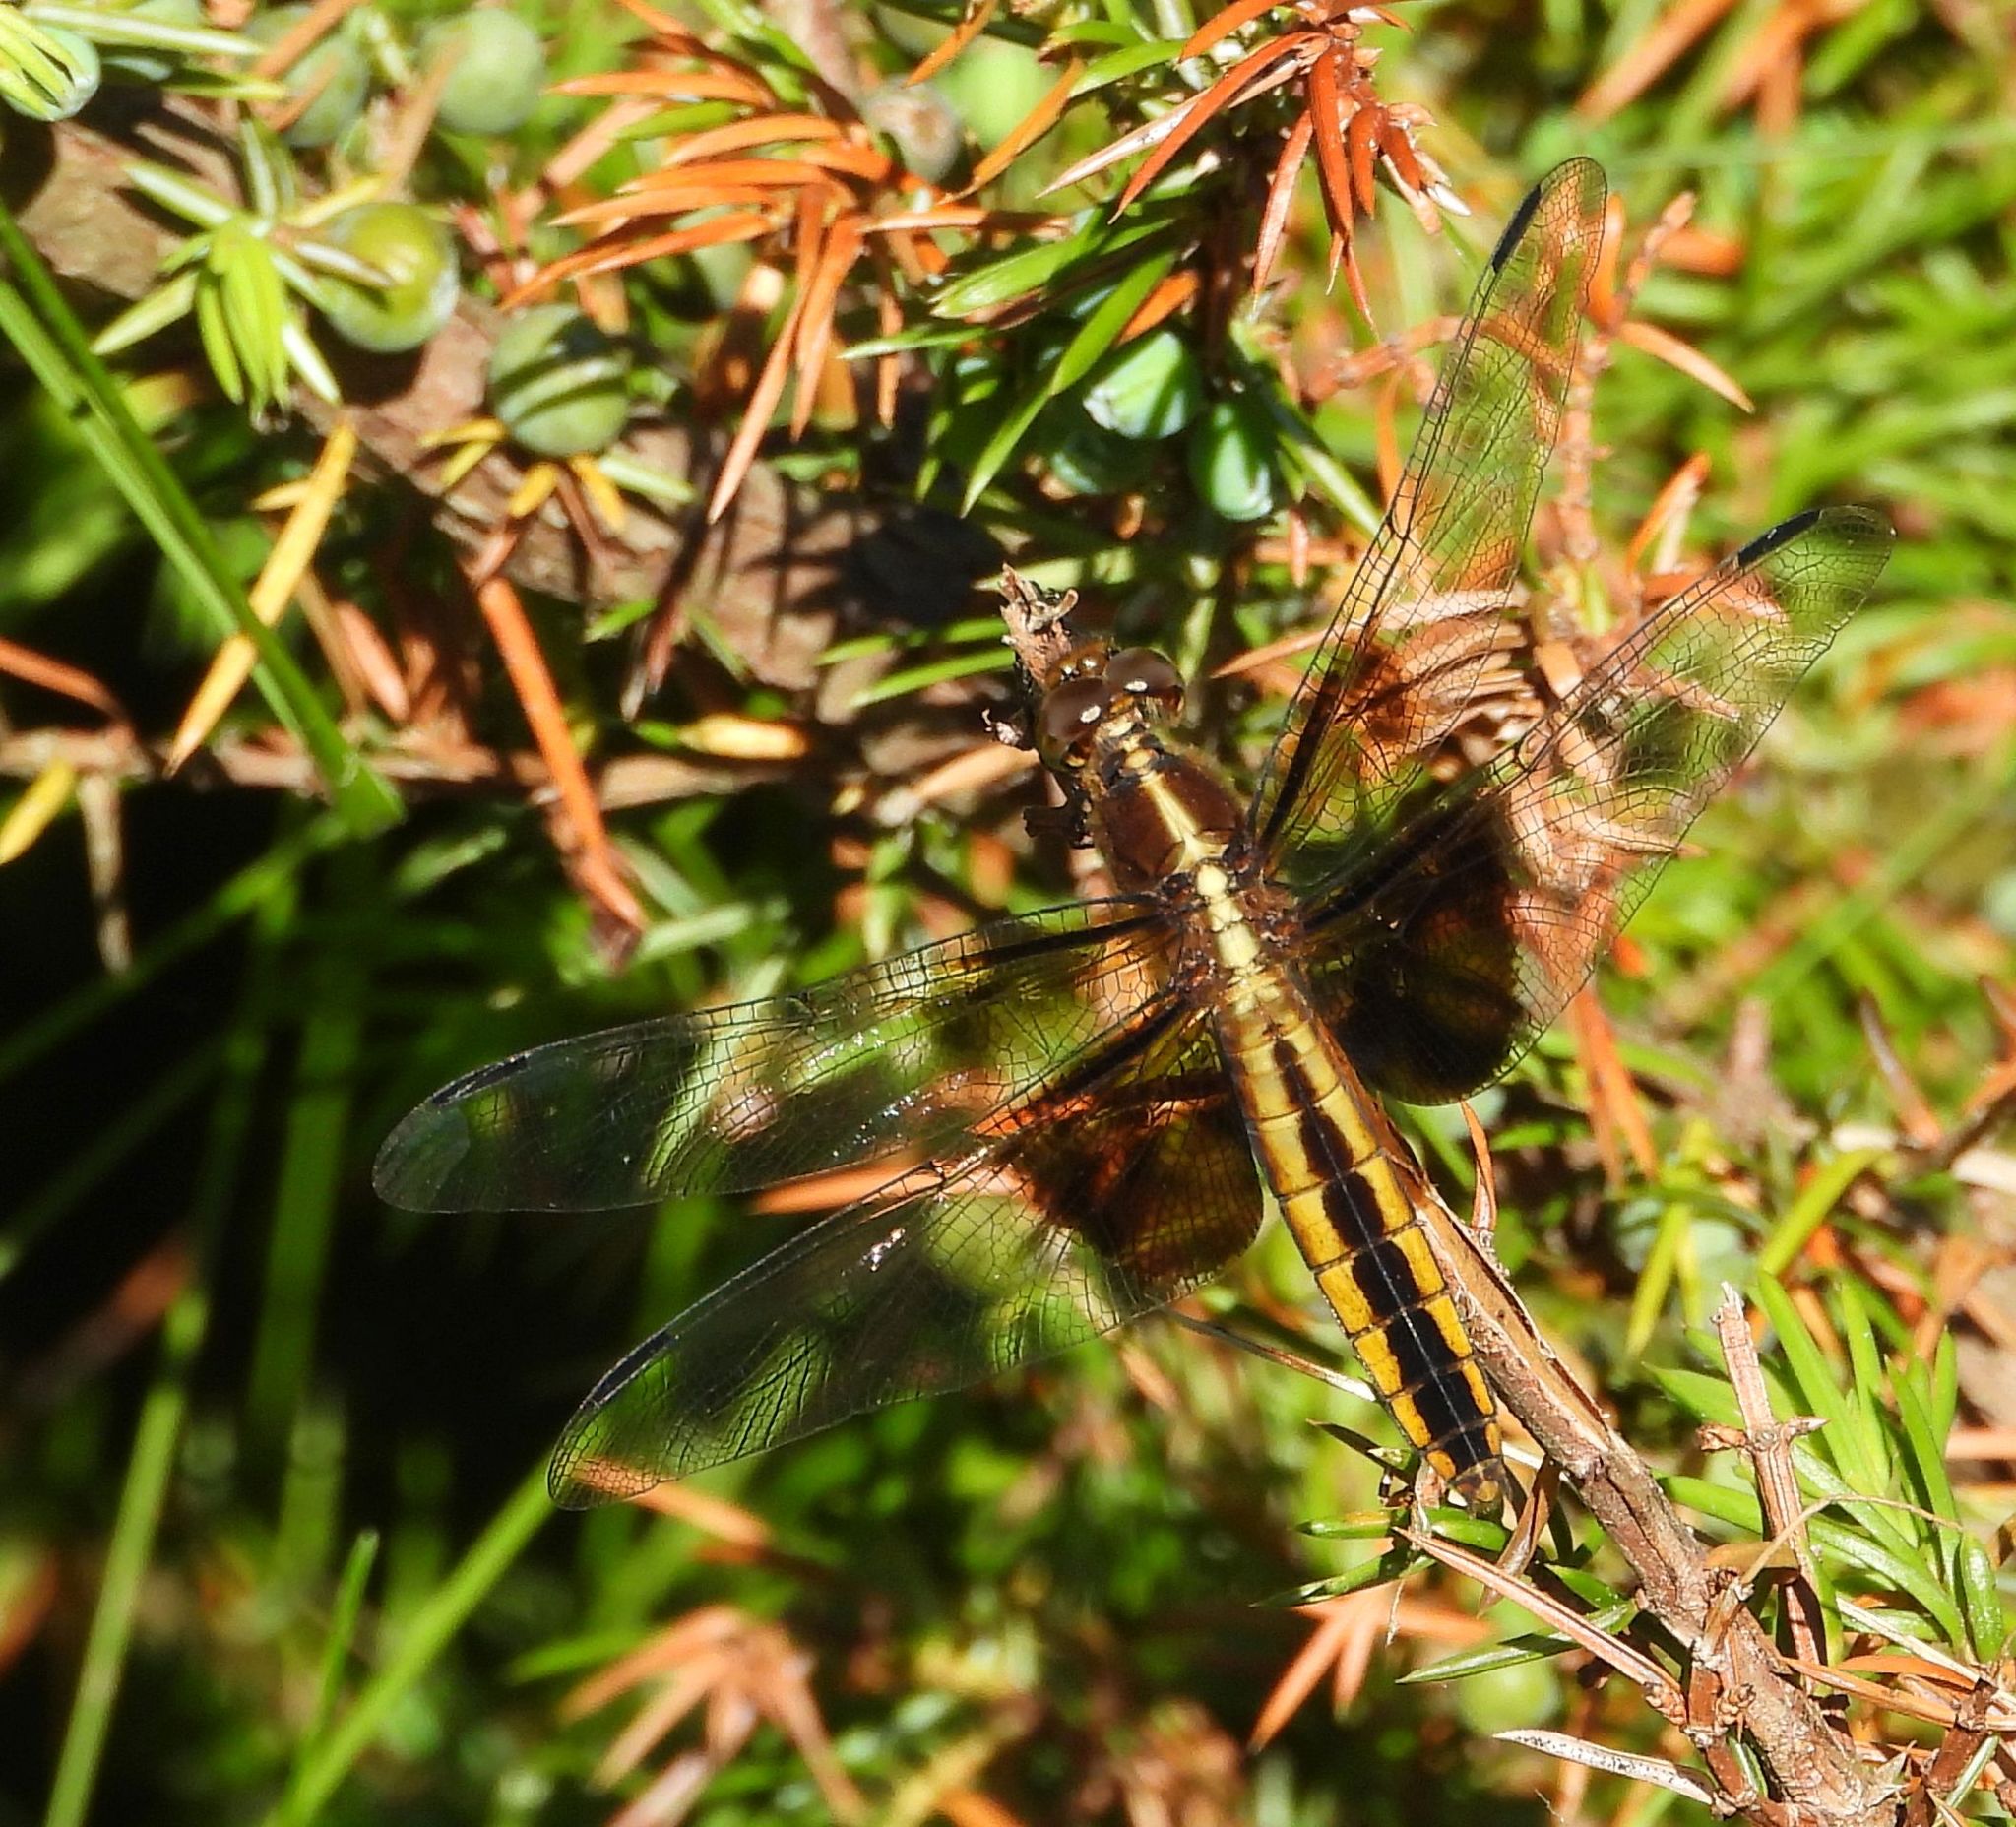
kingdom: Animalia
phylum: Arthropoda
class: Insecta
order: Odonata
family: Libellulidae
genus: Libellula
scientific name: Libellula luctuosa
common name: Widow skimmer
